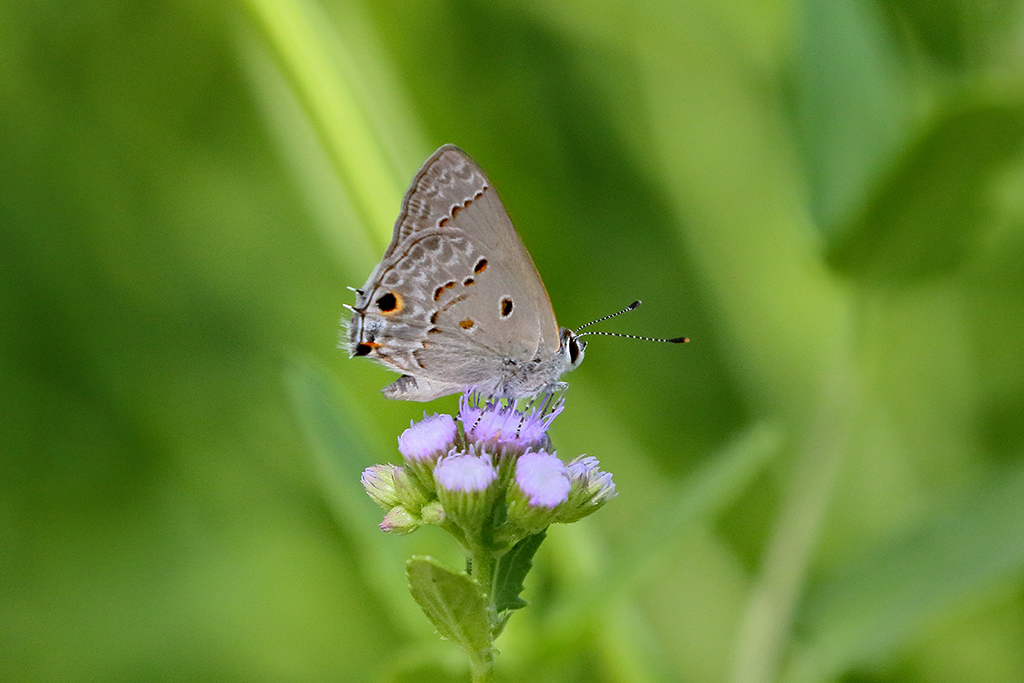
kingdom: Animalia
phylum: Arthropoda
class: Insecta
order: Lepidoptera
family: Lycaenidae
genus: Callicista
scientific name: Callicista columella
